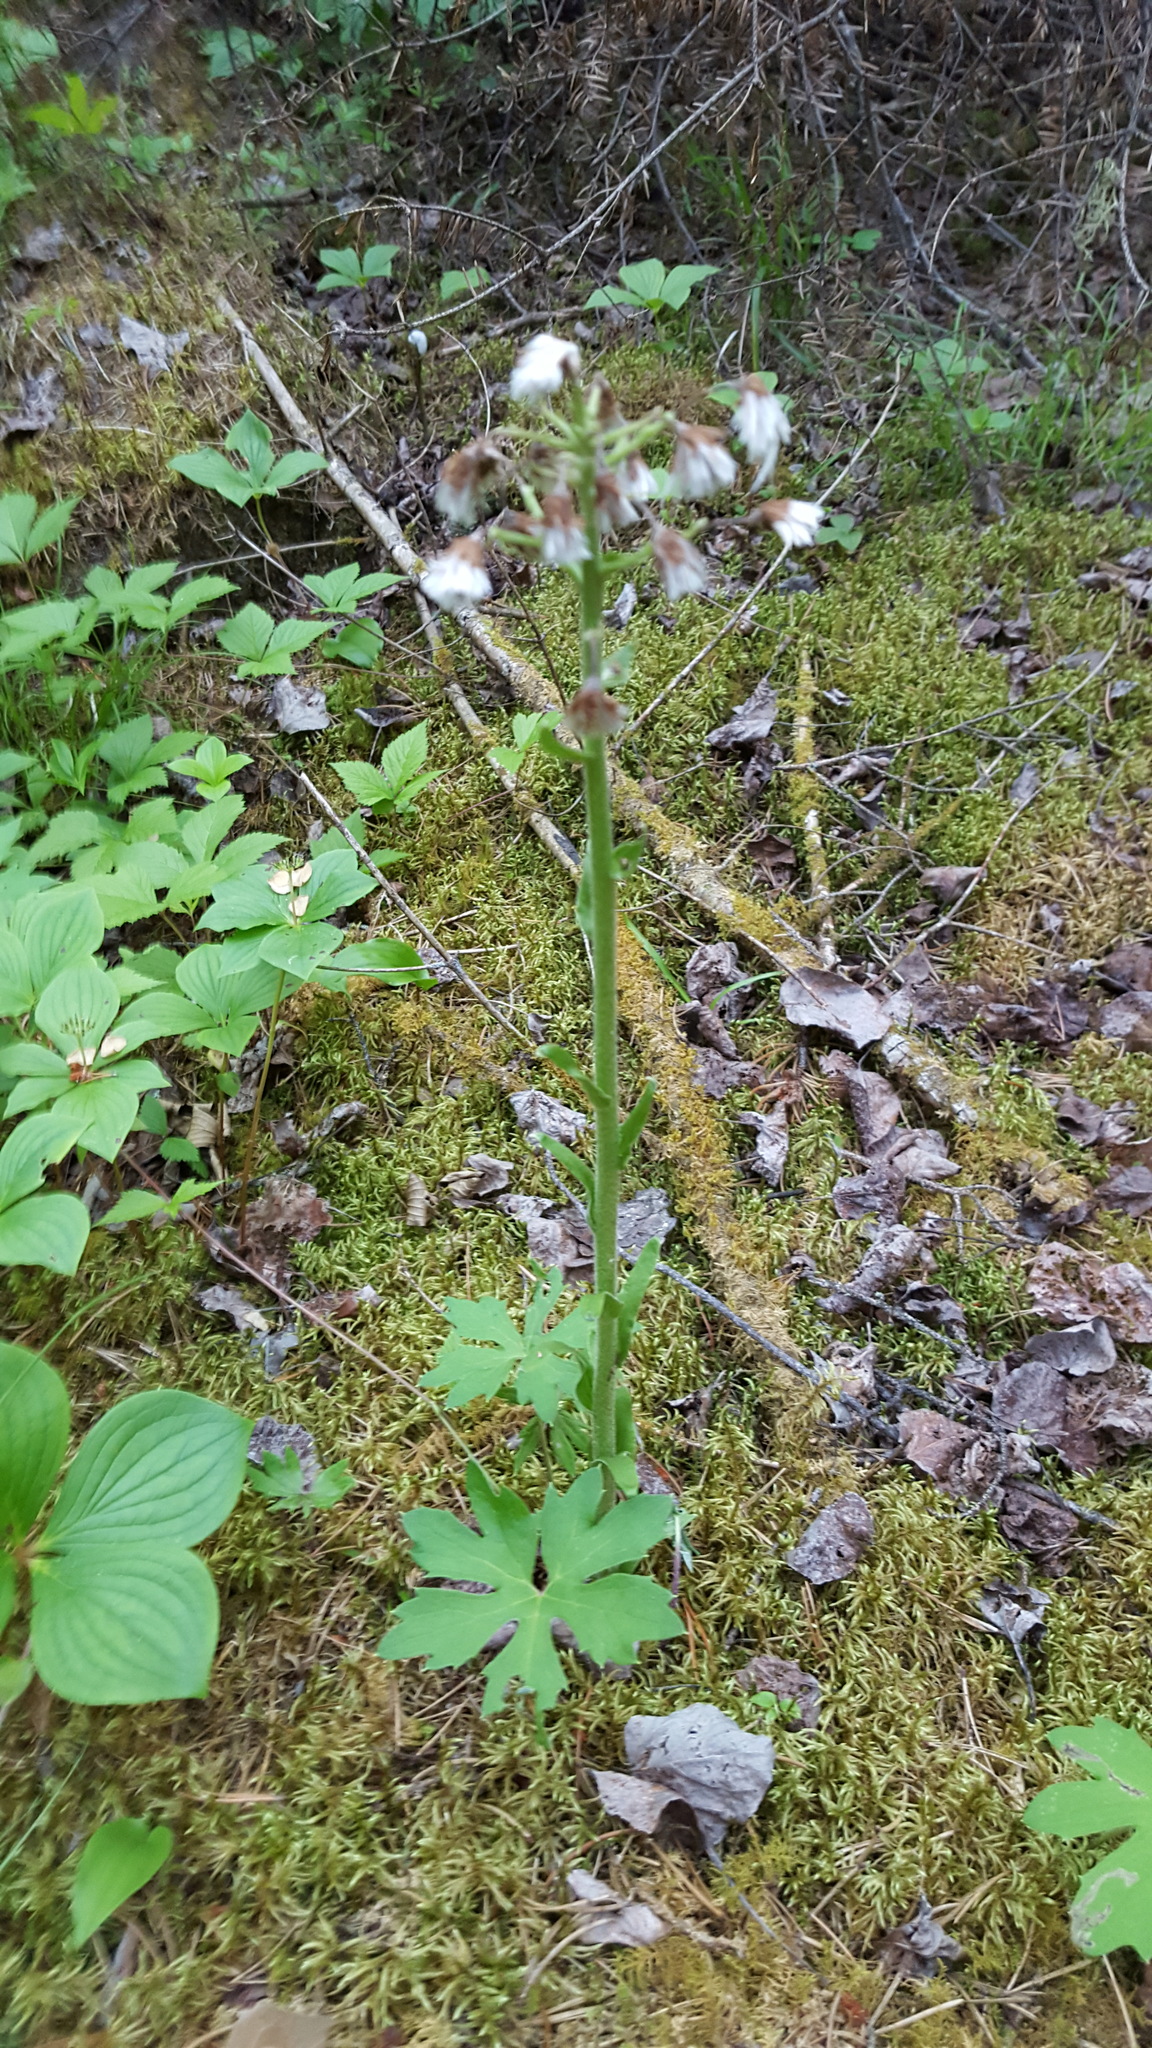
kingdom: Plantae
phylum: Tracheophyta
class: Magnoliopsida
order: Asterales
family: Asteraceae
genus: Petasites
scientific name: Petasites frigidus
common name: Arctic butterbur
